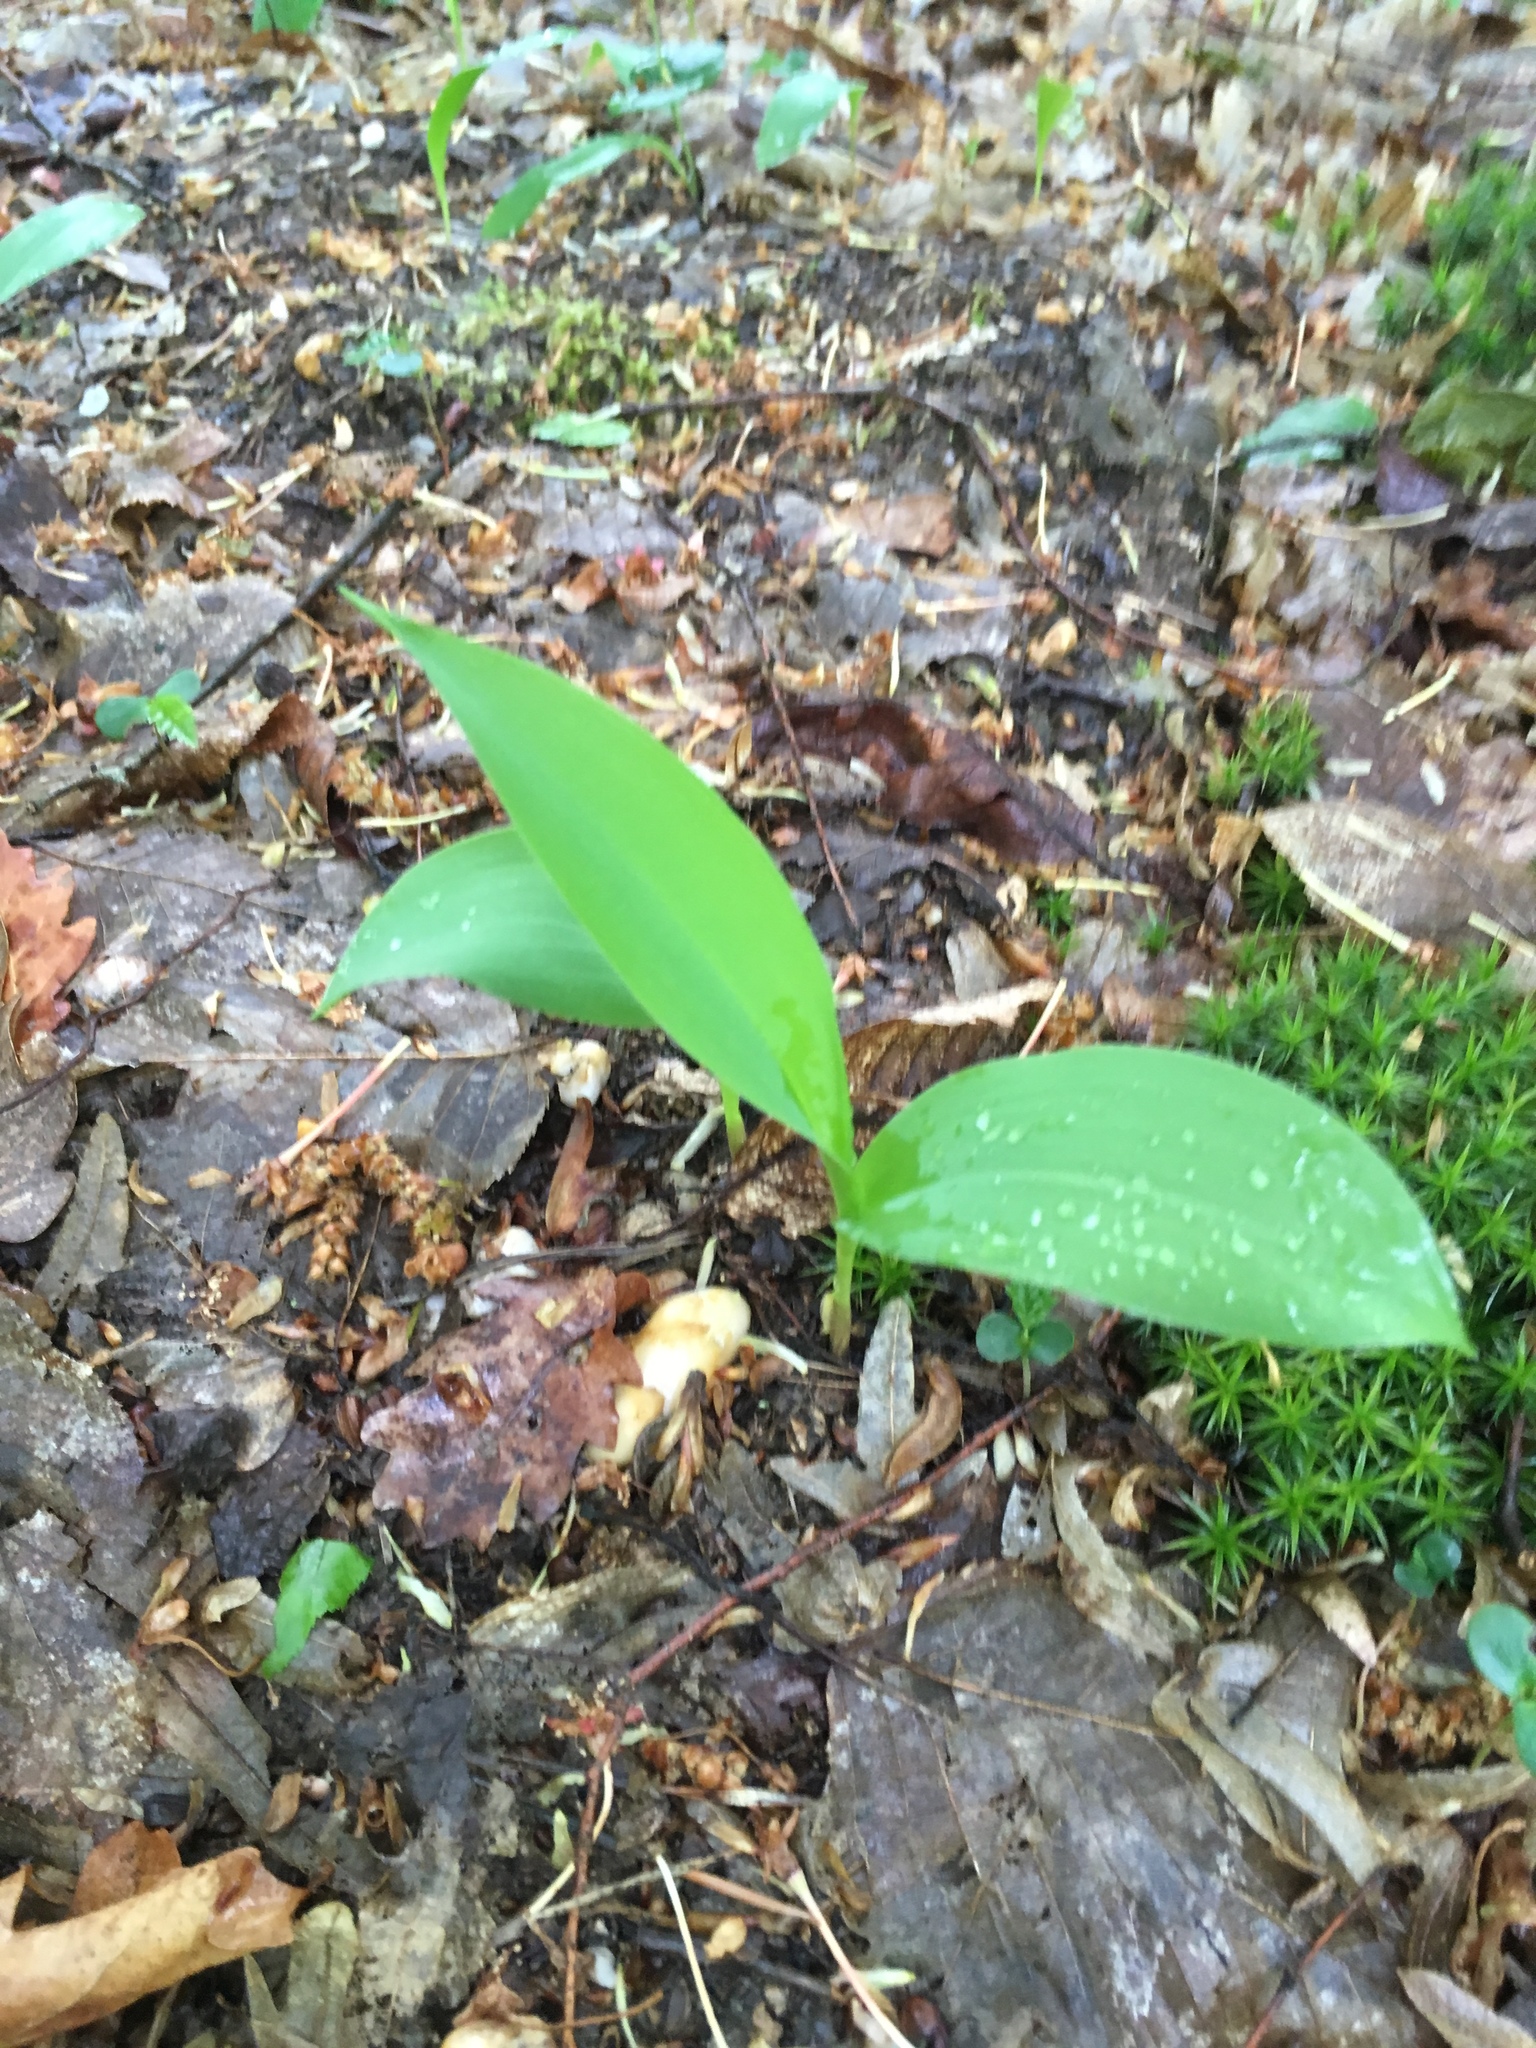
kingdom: Plantae
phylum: Tracheophyta
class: Liliopsida
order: Asparagales
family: Asparagaceae
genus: Convallaria
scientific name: Convallaria majalis
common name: Lily-of-the-valley
